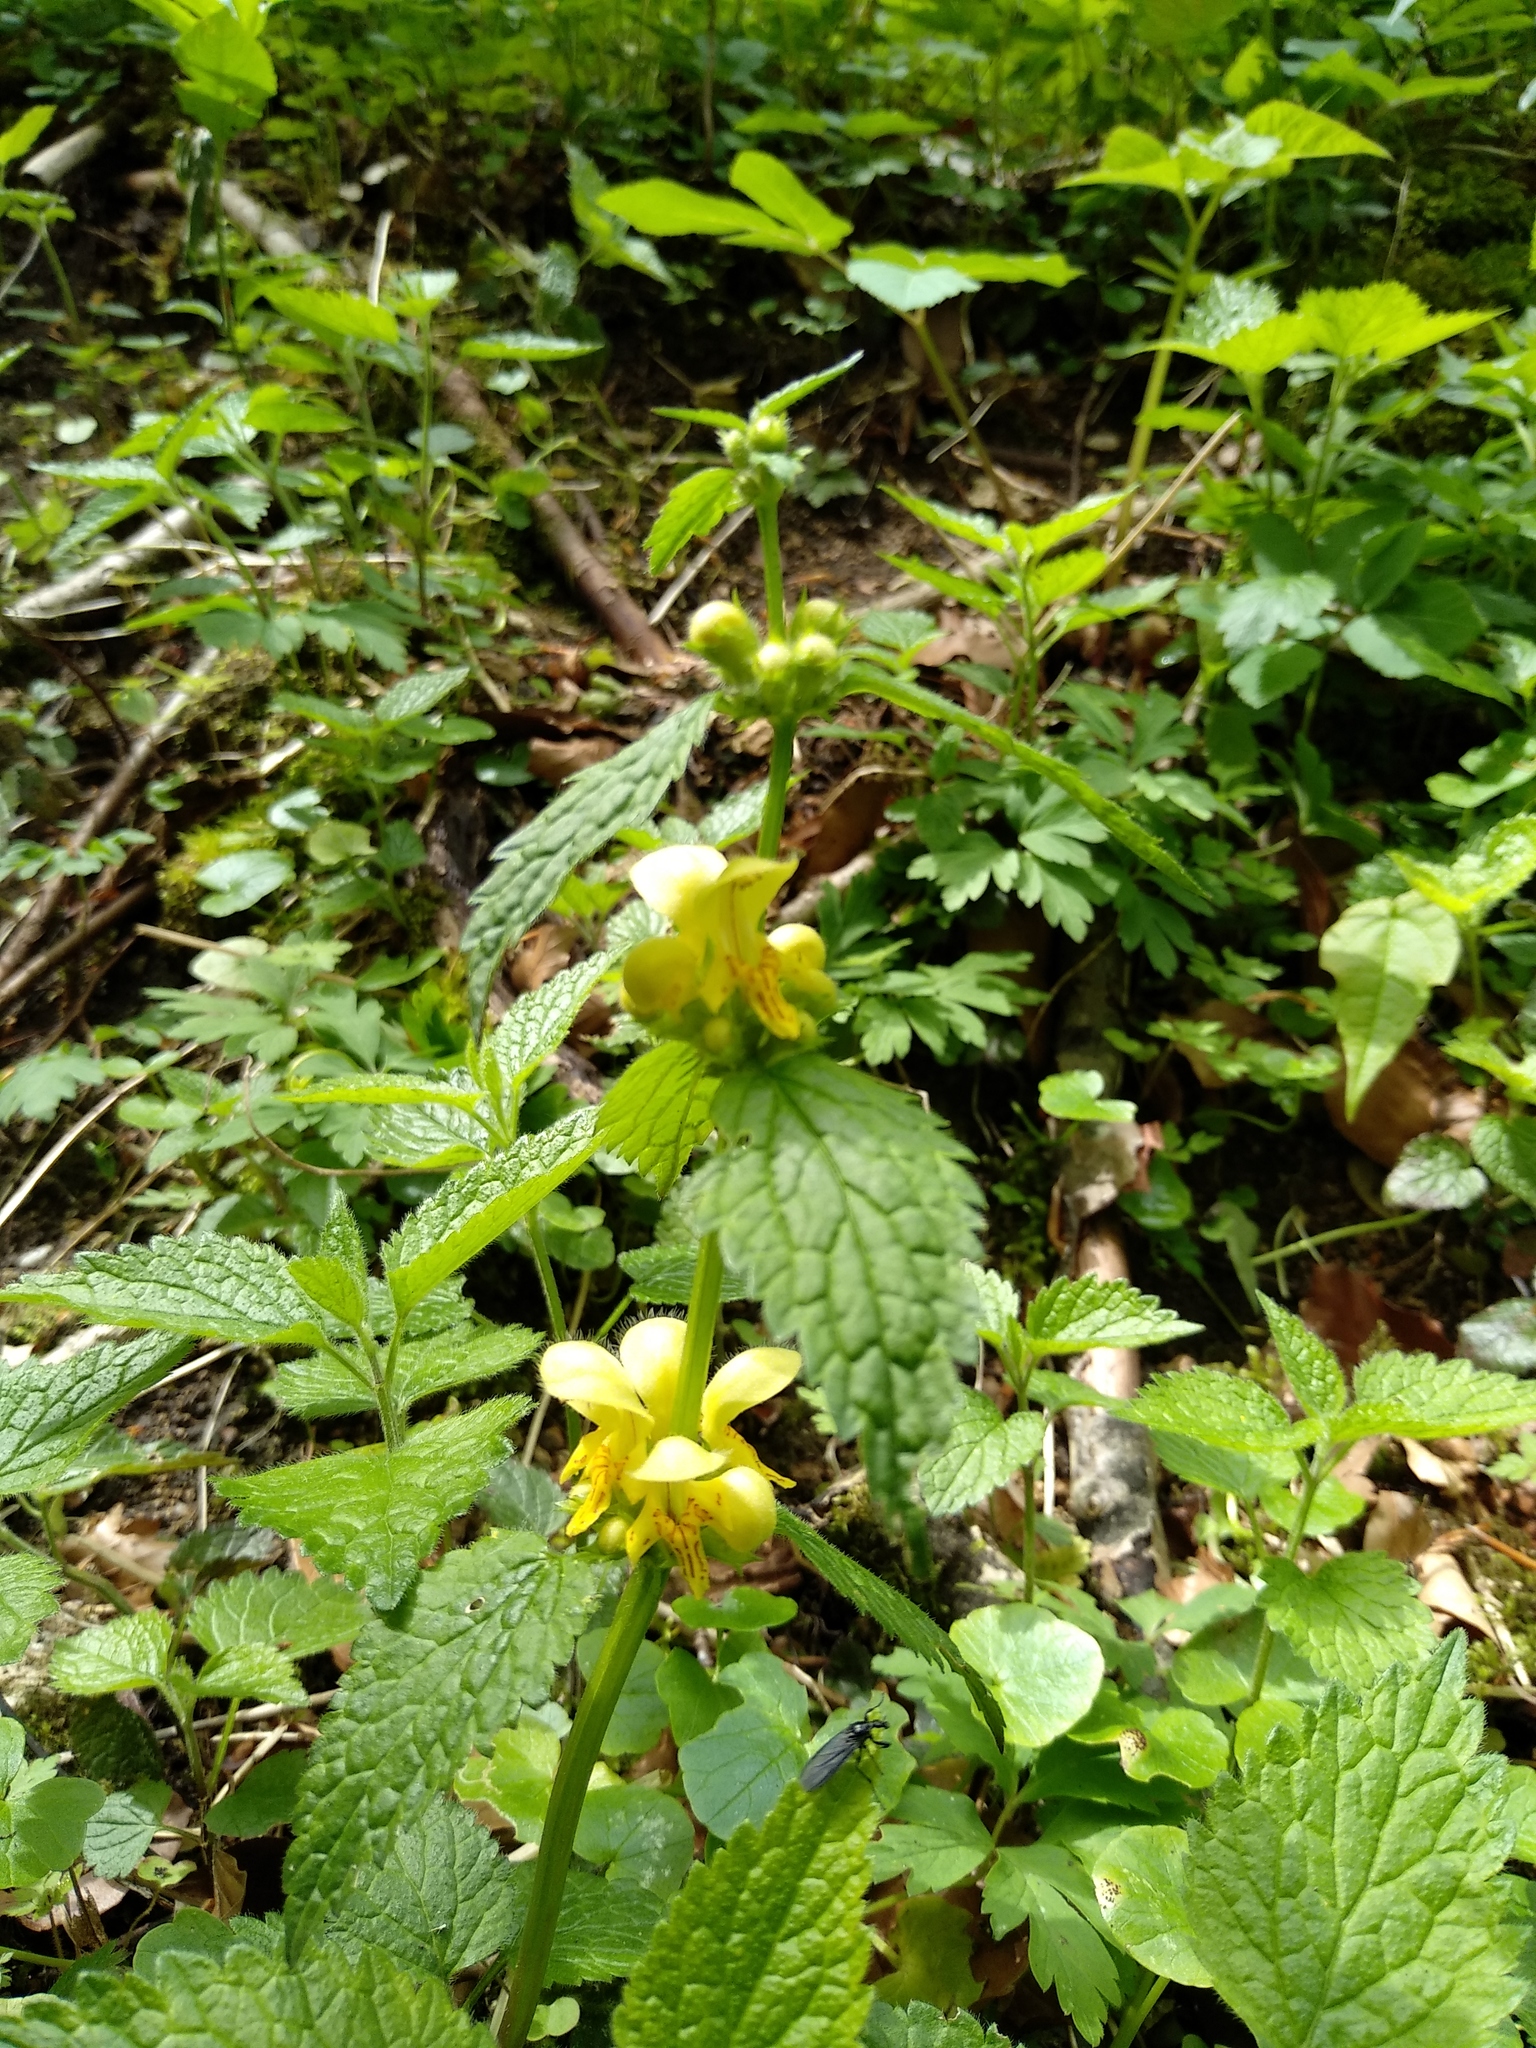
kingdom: Plantae
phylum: Tracheophyta
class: Magnoliopsida
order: Lamiales
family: Lamiaceae
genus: Lamium
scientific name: Lamium galeobdolon
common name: Yellow archangel
